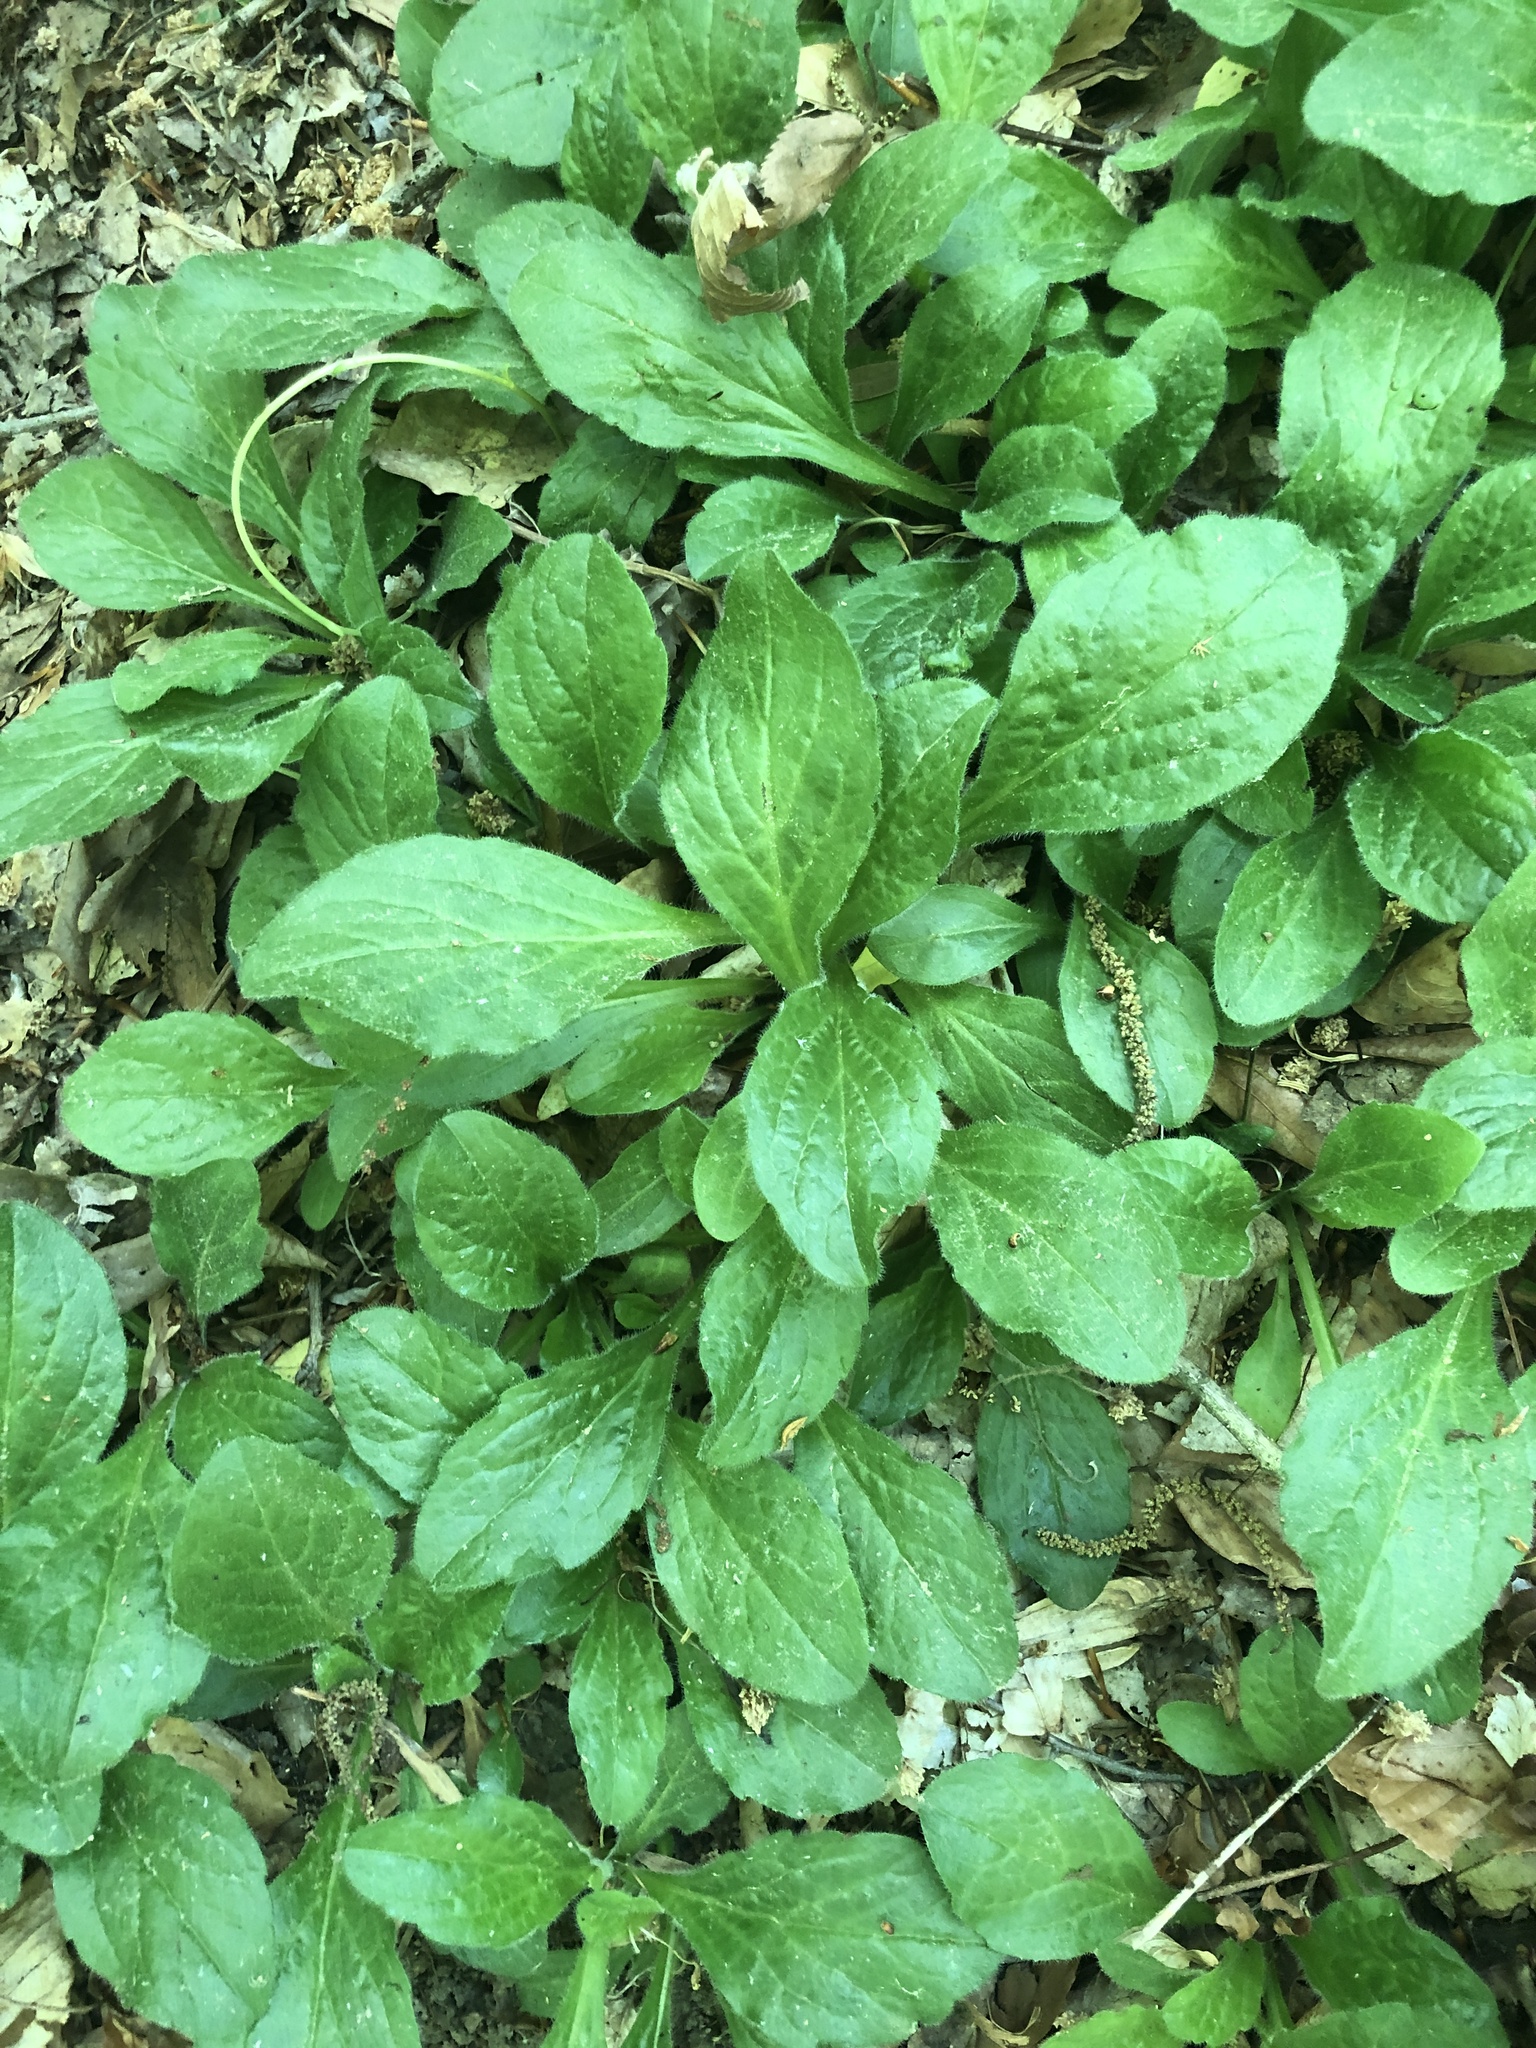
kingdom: Plantae
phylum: Tracheophyta
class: Magnoliopsida
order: Asterales
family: Asteraceae
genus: Erigeron
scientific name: Erigeron pulchellus
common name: Hairy fleabane
